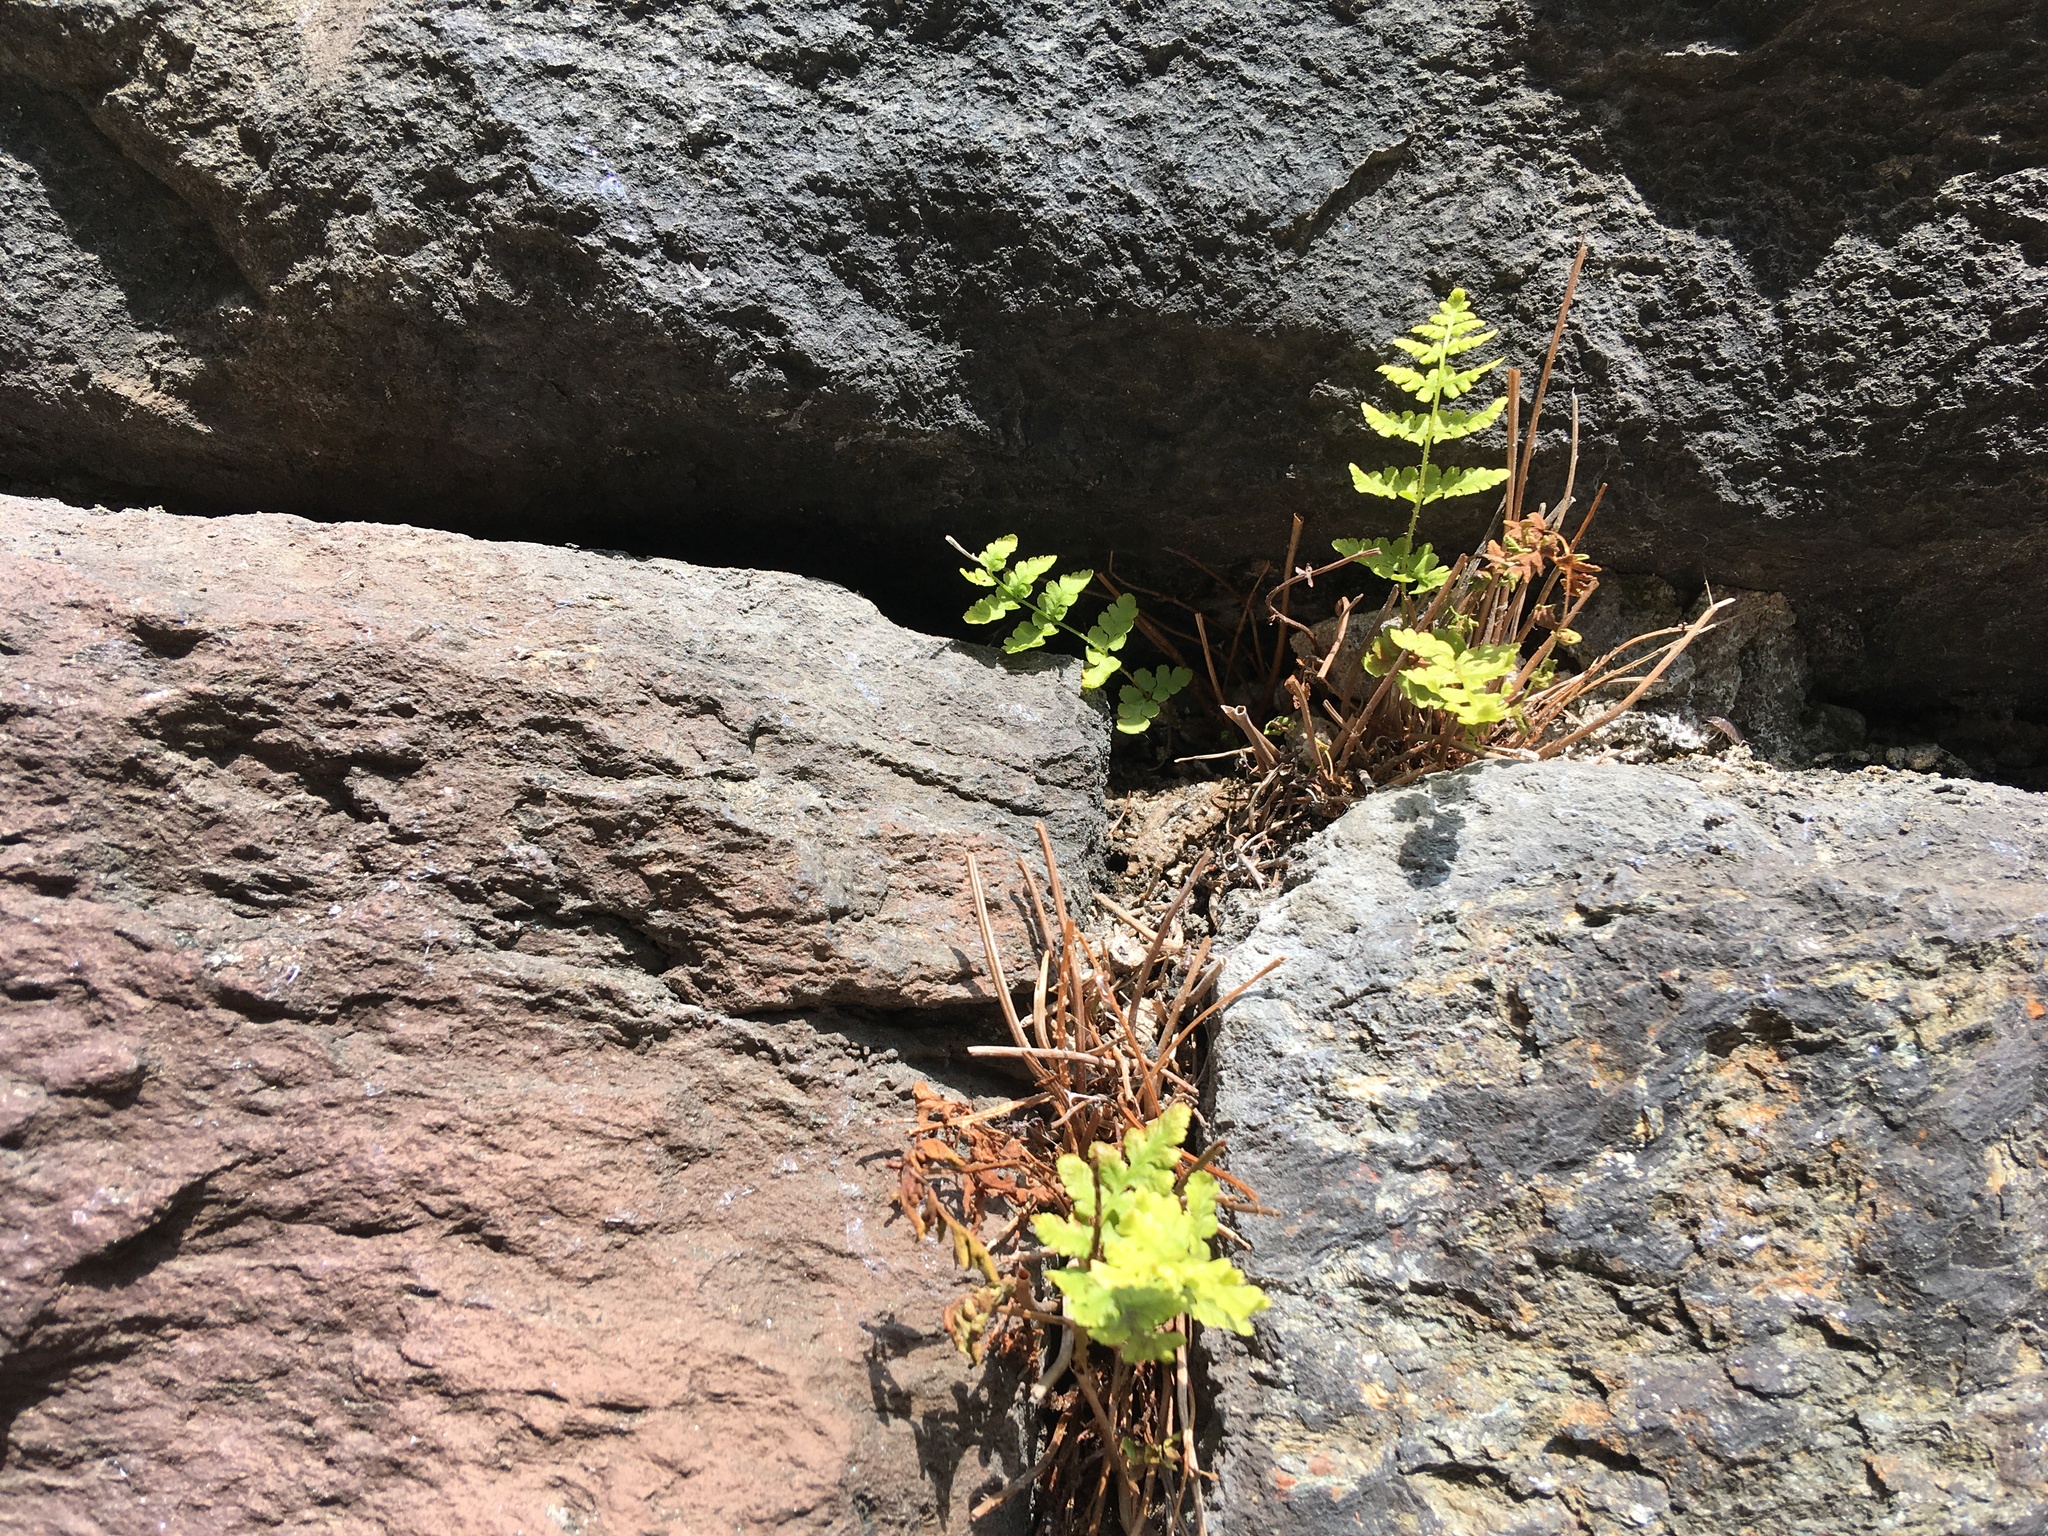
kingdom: Plantae
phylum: Tracheophyta
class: Polypodiopsida
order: Polypodiales
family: Woodsiaceae
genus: Physematium
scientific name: Physematium obtusum
